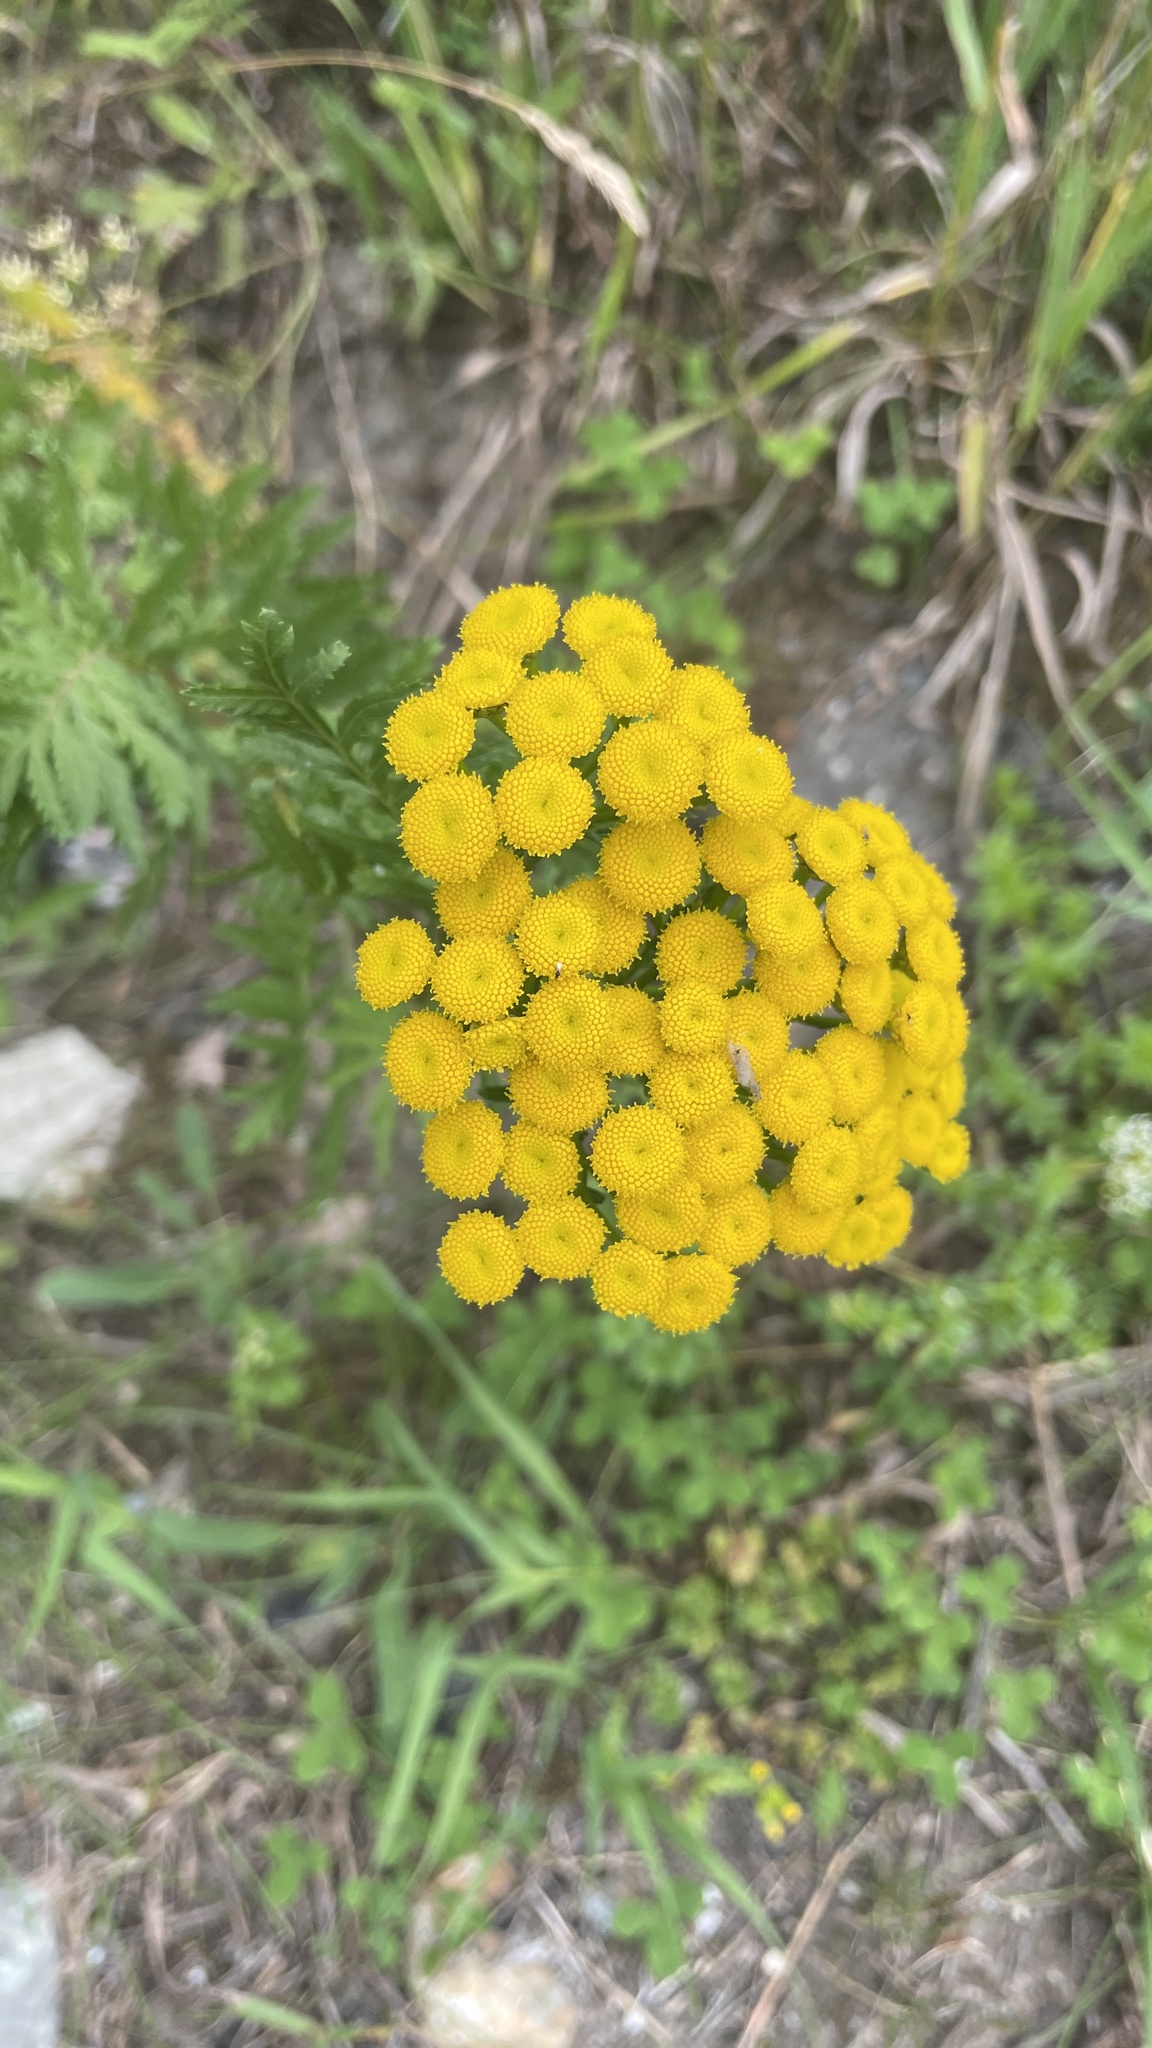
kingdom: Plantae
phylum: Tracheophyta
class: Magnoliopsida
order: Asterales
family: Asteraceae
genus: Tanacetum
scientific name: Tanacetum vulgare
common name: Common tansy
